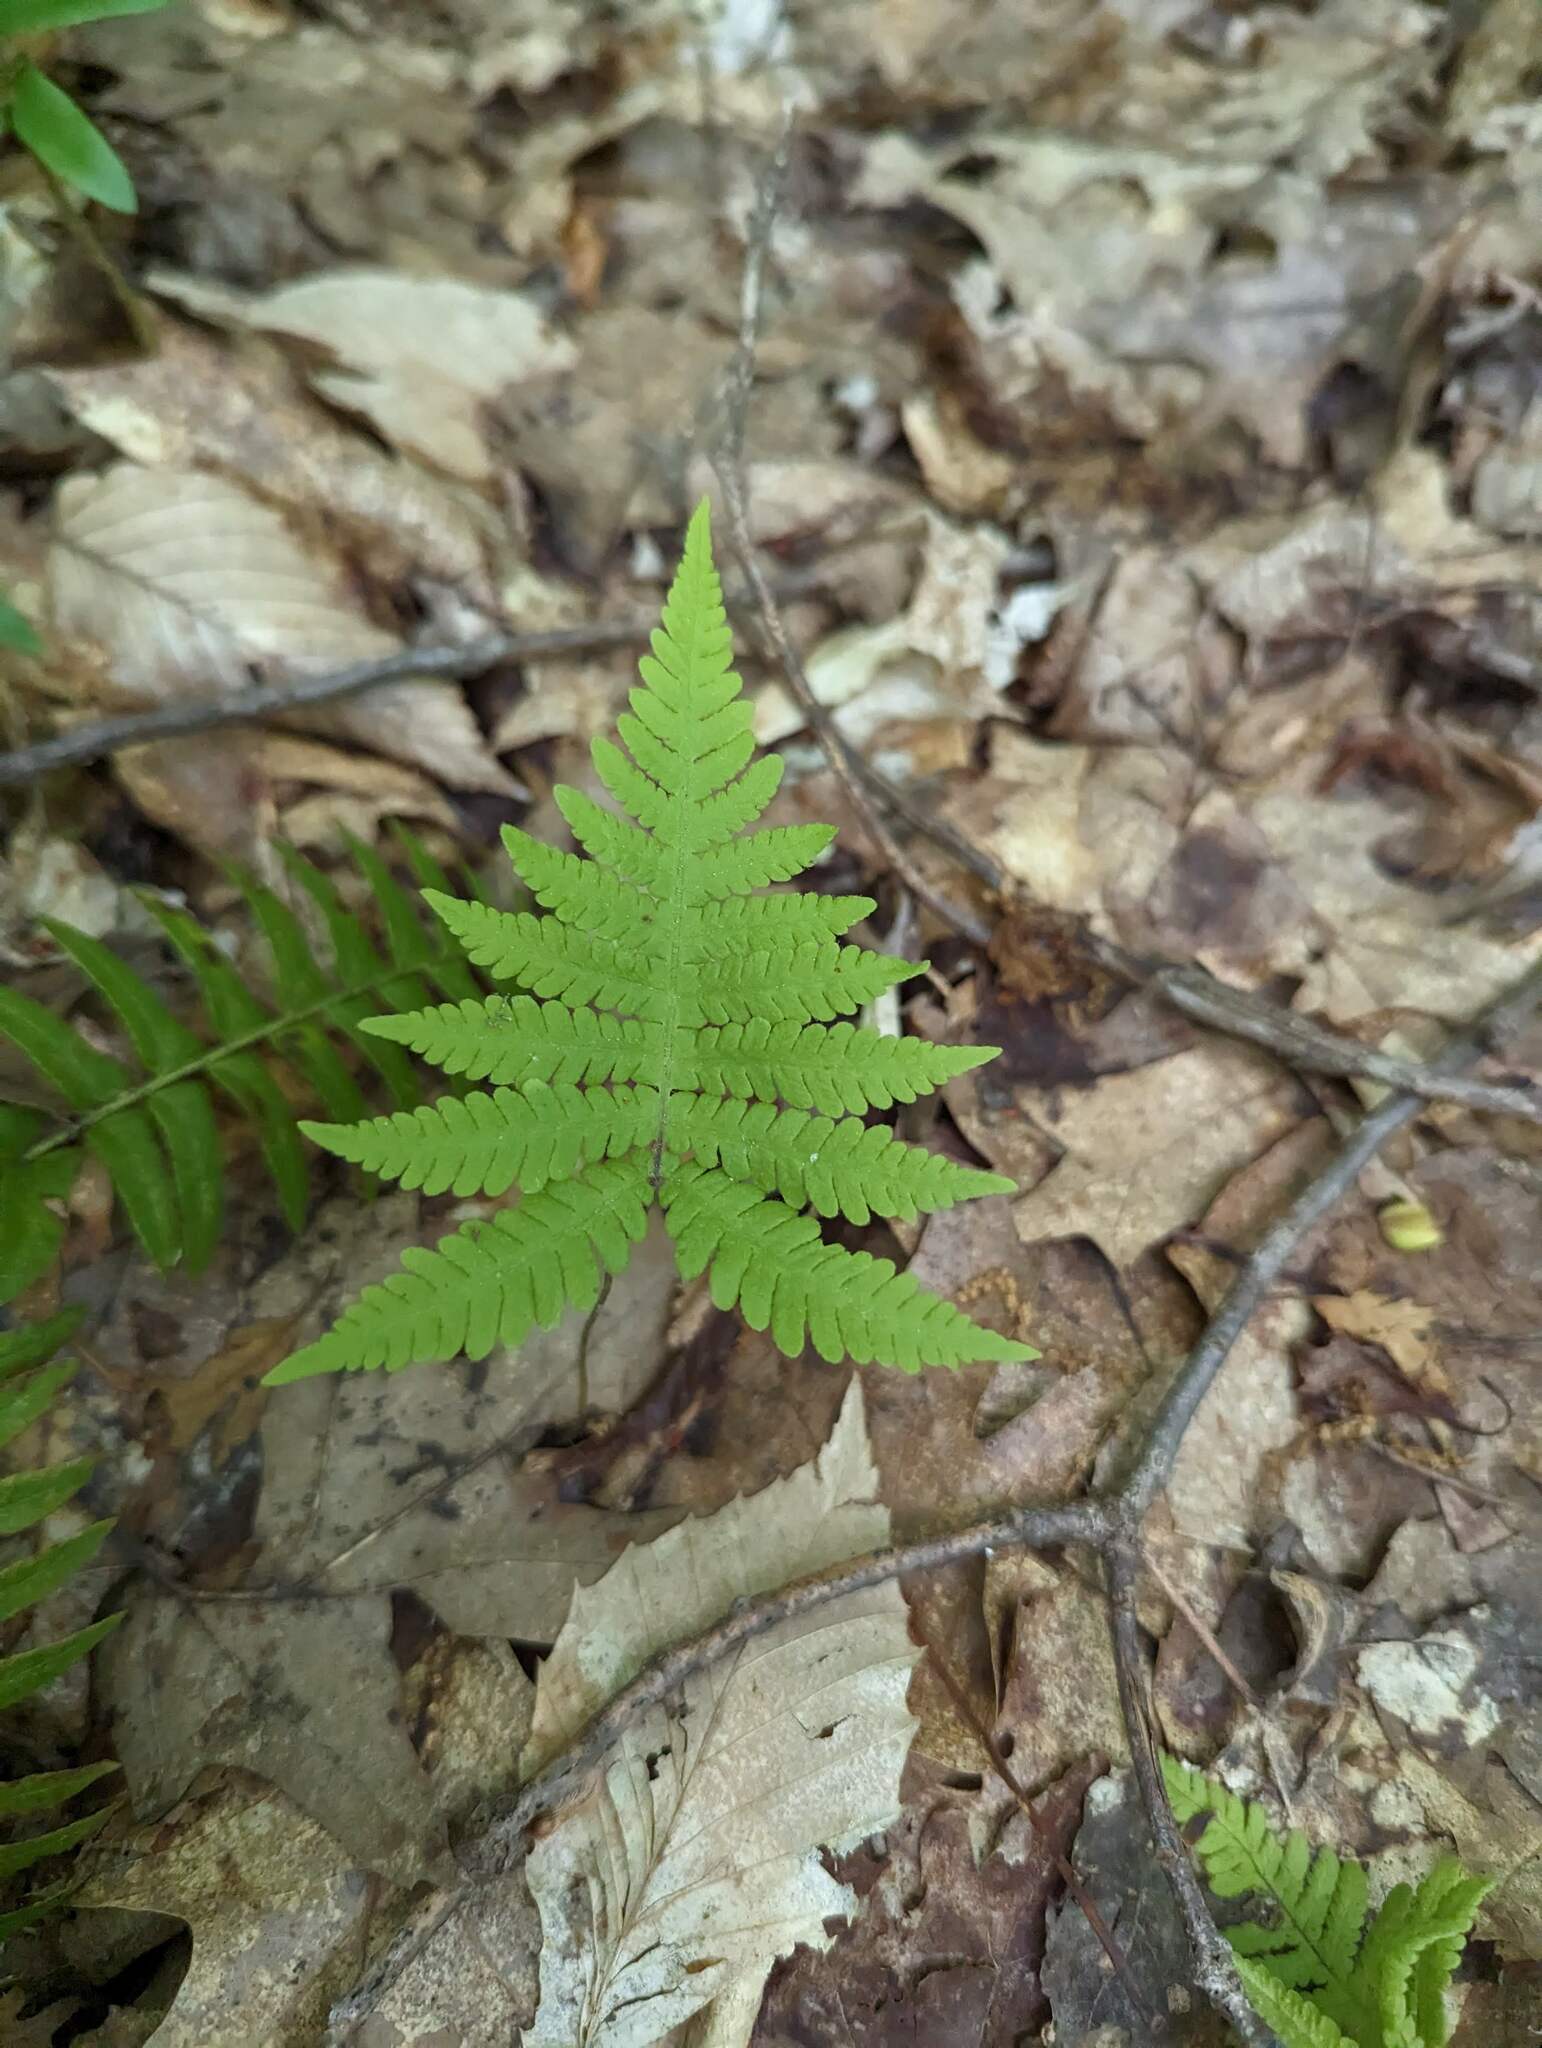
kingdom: Plantae
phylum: Tracheophyta
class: Polypodiopsida
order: Polypodiales
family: Thelypteridaceae
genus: Phegopteris
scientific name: Phegopteris connectilis
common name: Beech fern
